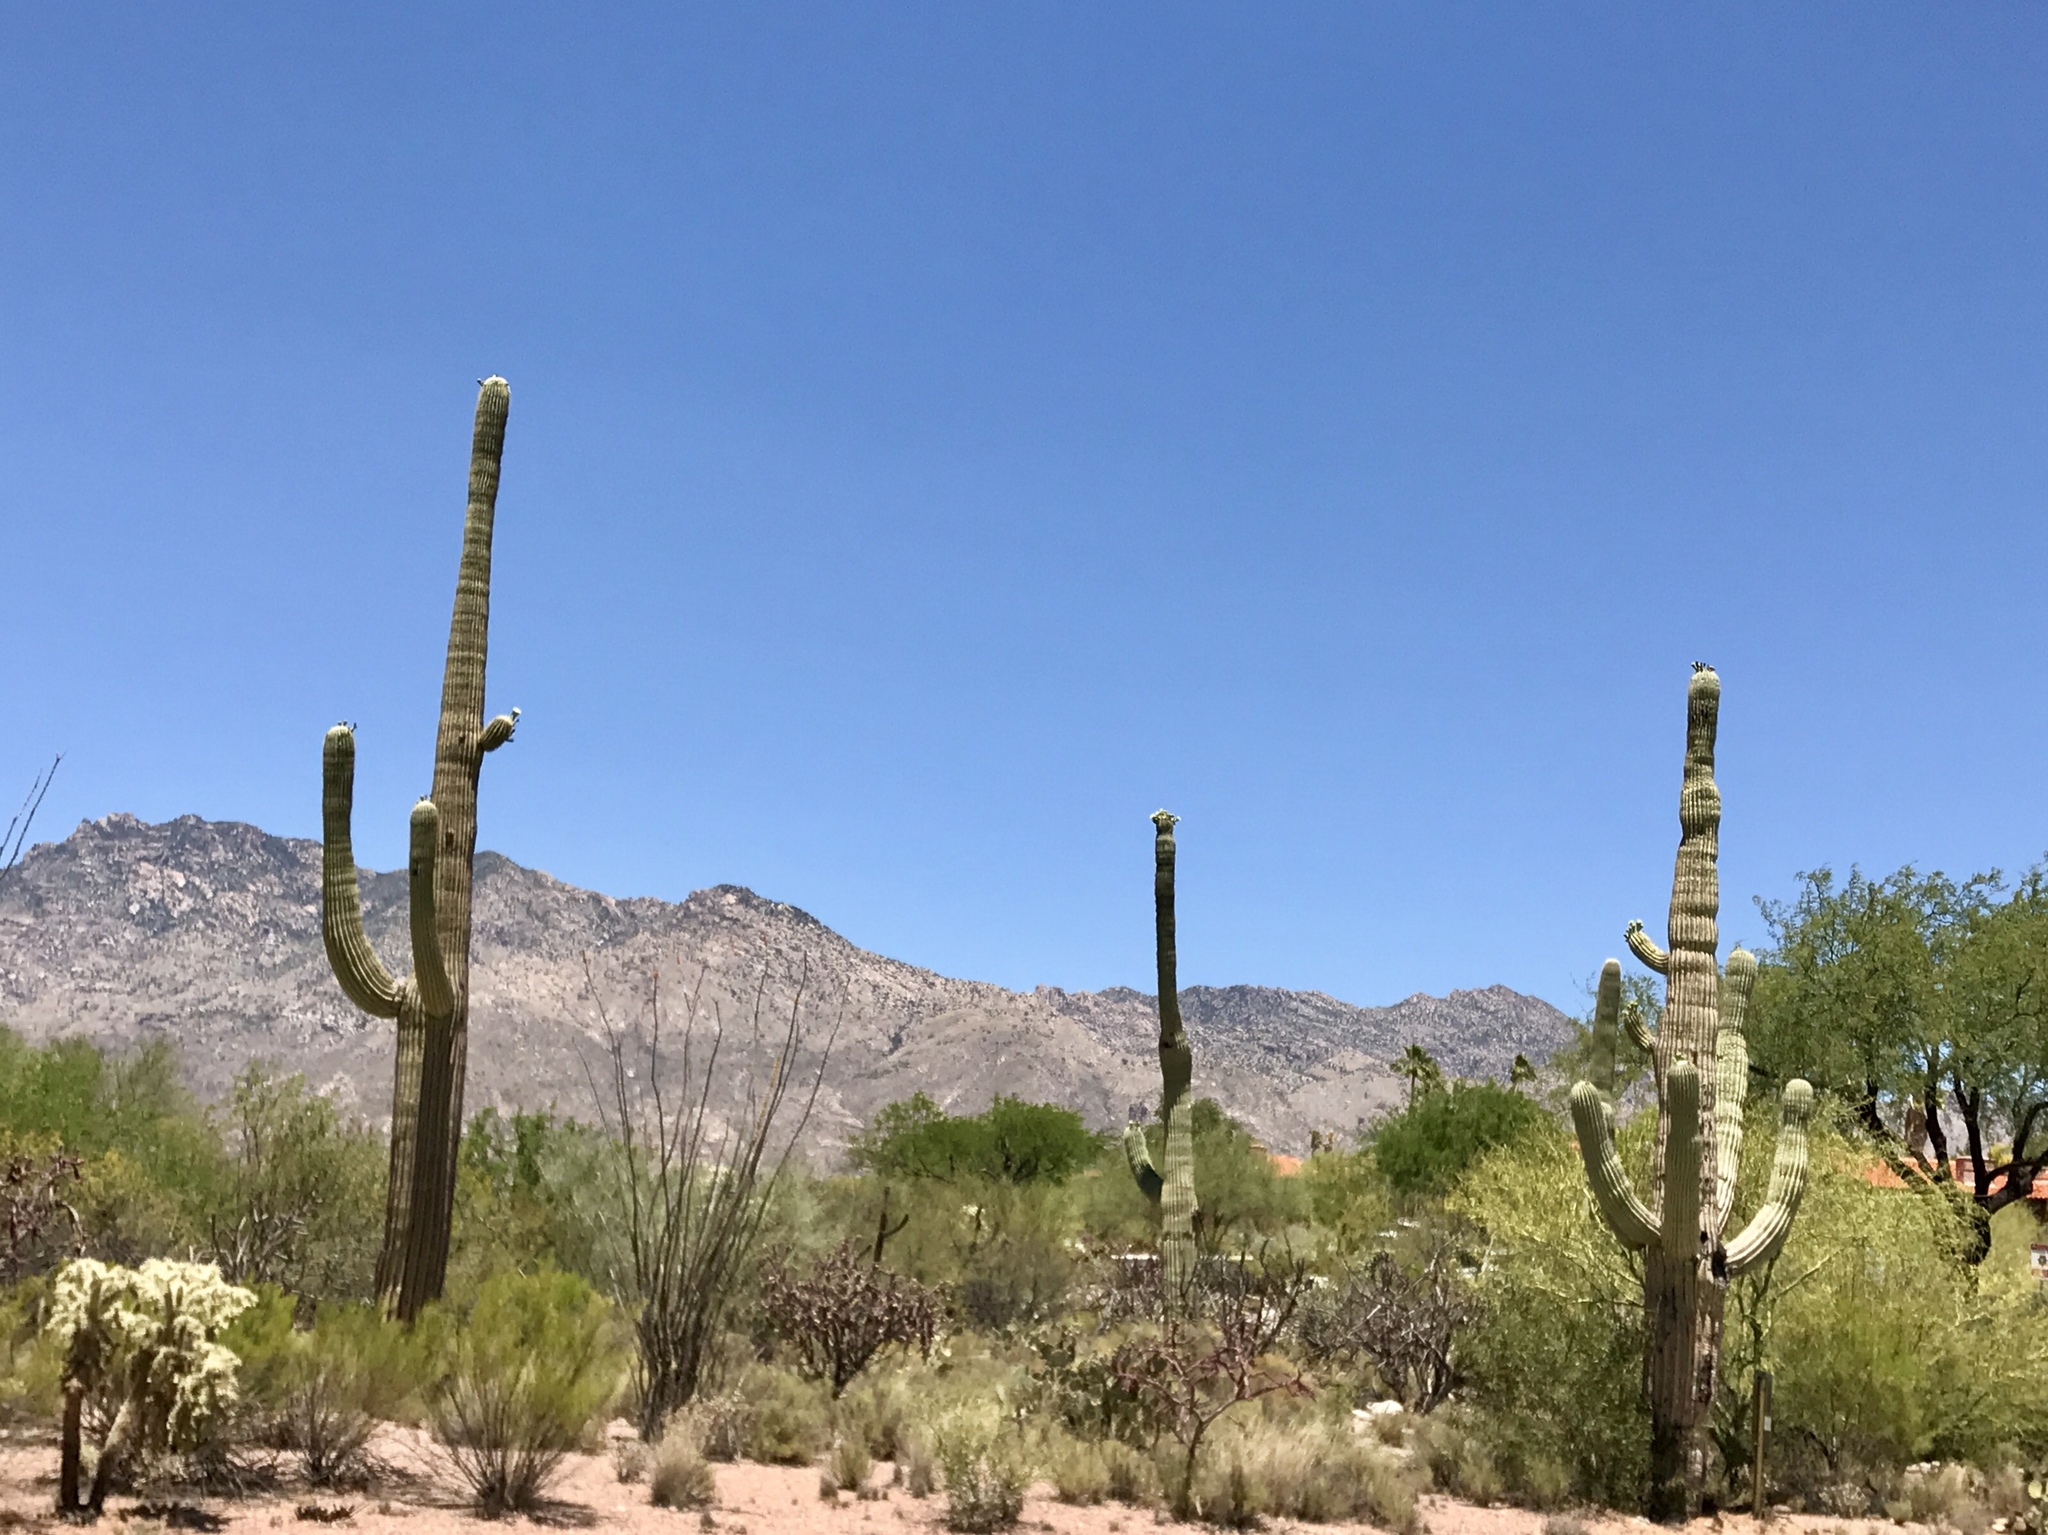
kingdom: Plantae
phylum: Tracheophyta
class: Magnoliopsida
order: Caryophyllales
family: Cactaceae
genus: Carnegiea
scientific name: Carnegiea gigantea
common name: Saguaro
